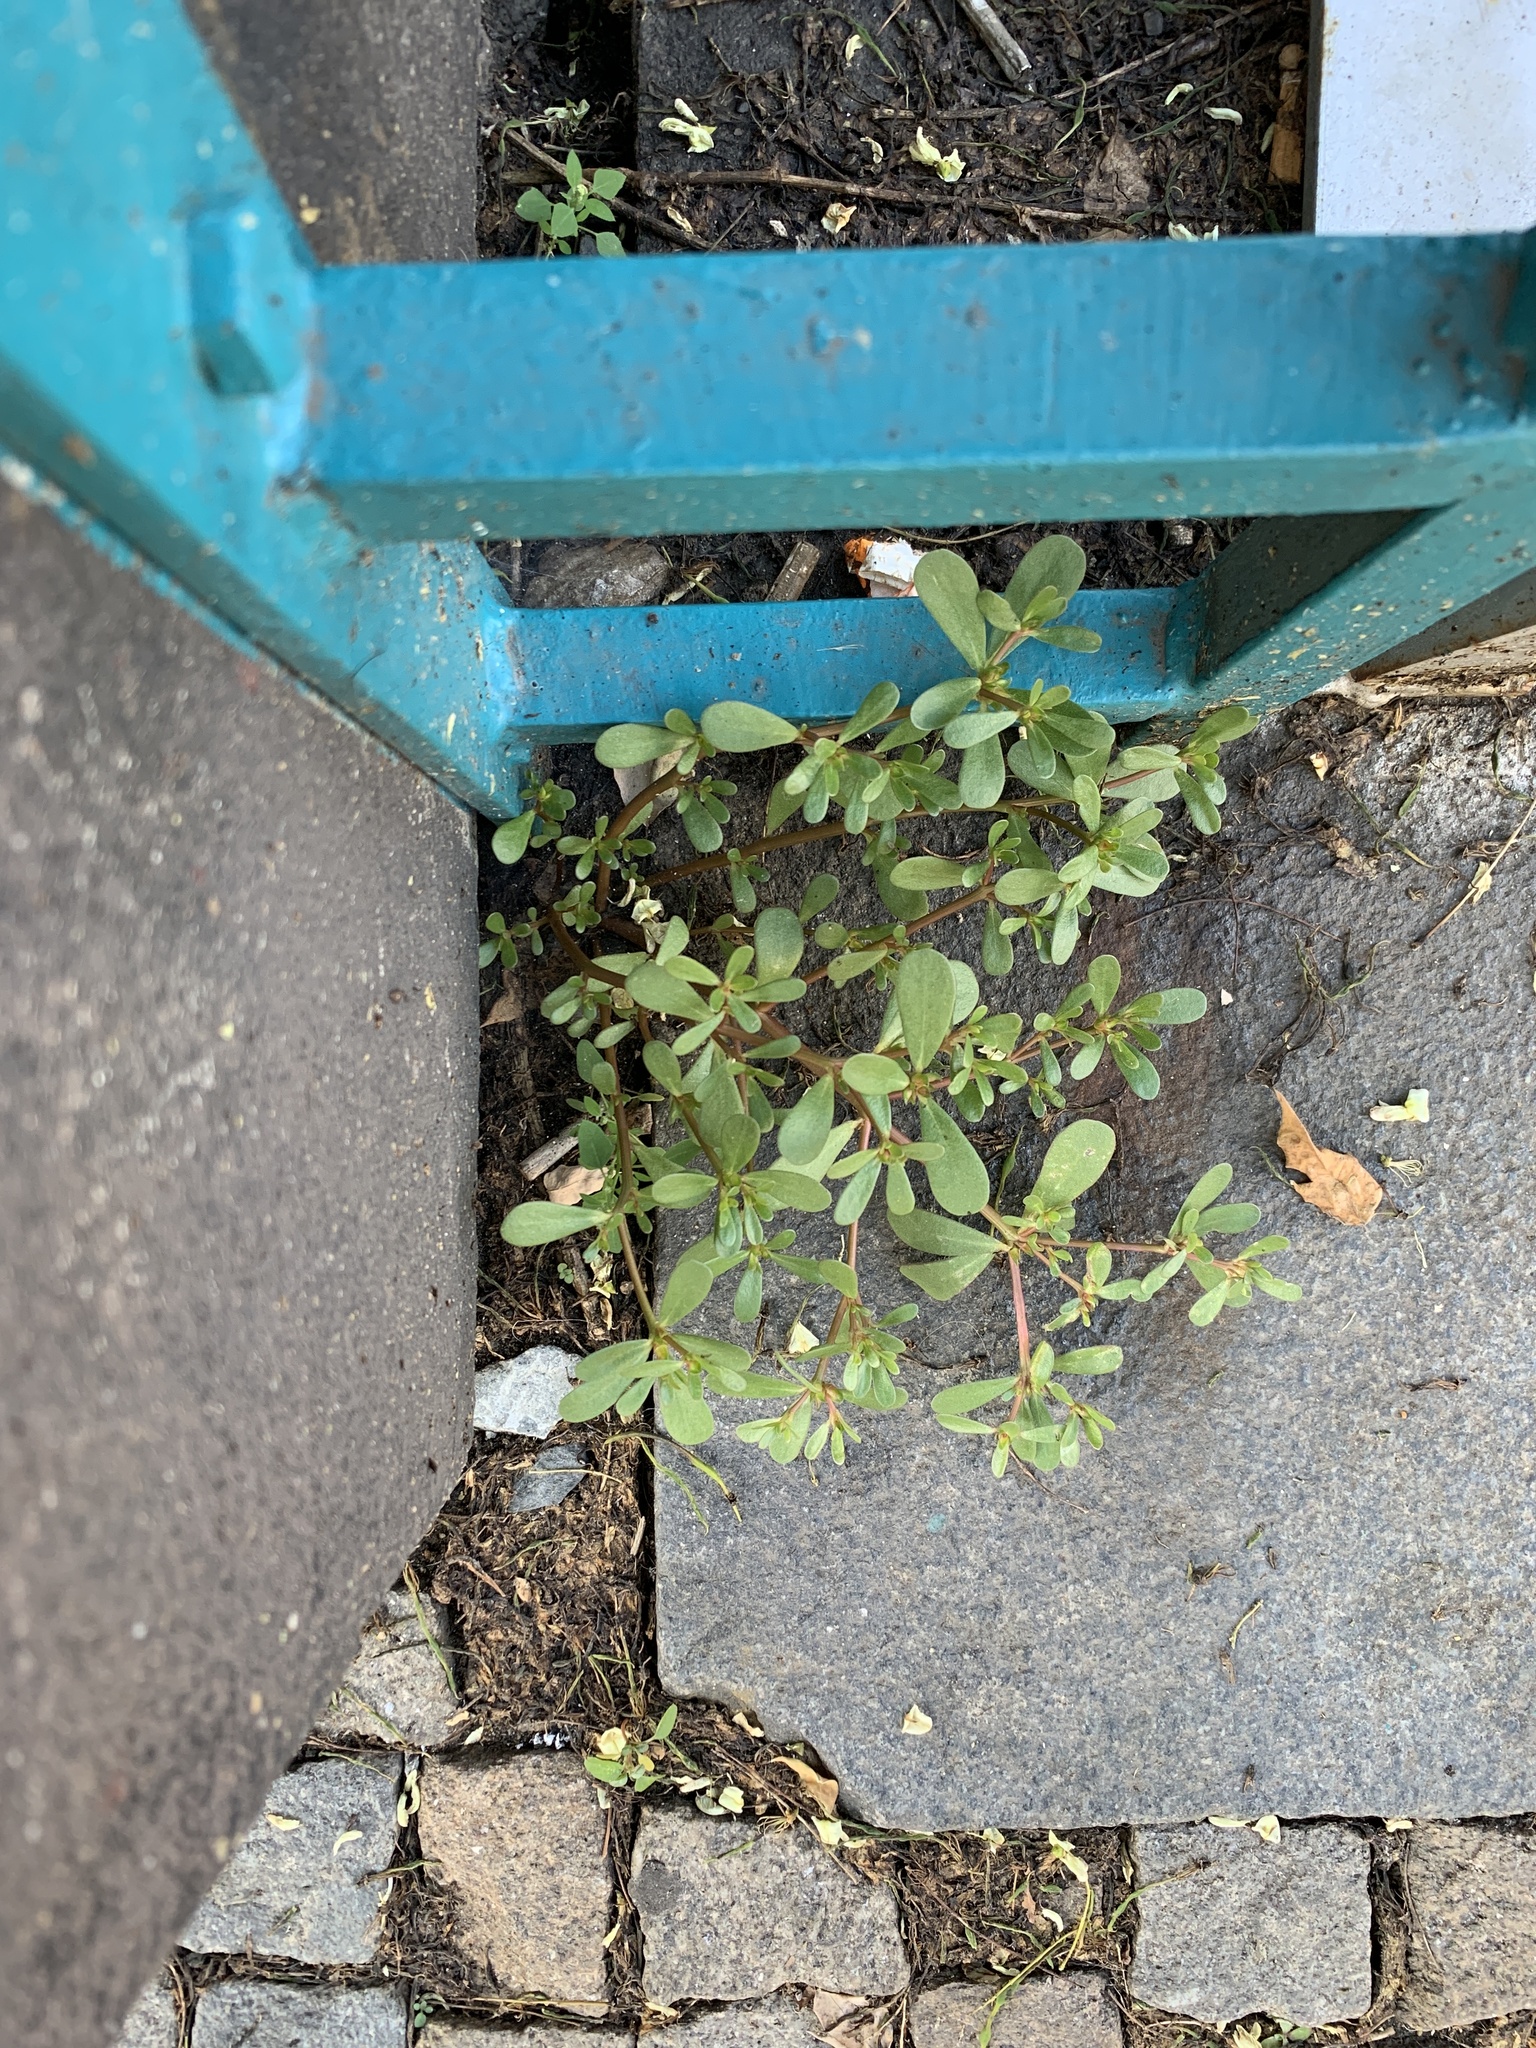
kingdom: Plantae
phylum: Tracheophyta
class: Magnoliopsida
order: Caryophyllales
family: Portulacaceae
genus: Portulaca
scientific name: Portulaca oleracea
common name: Common purslane
